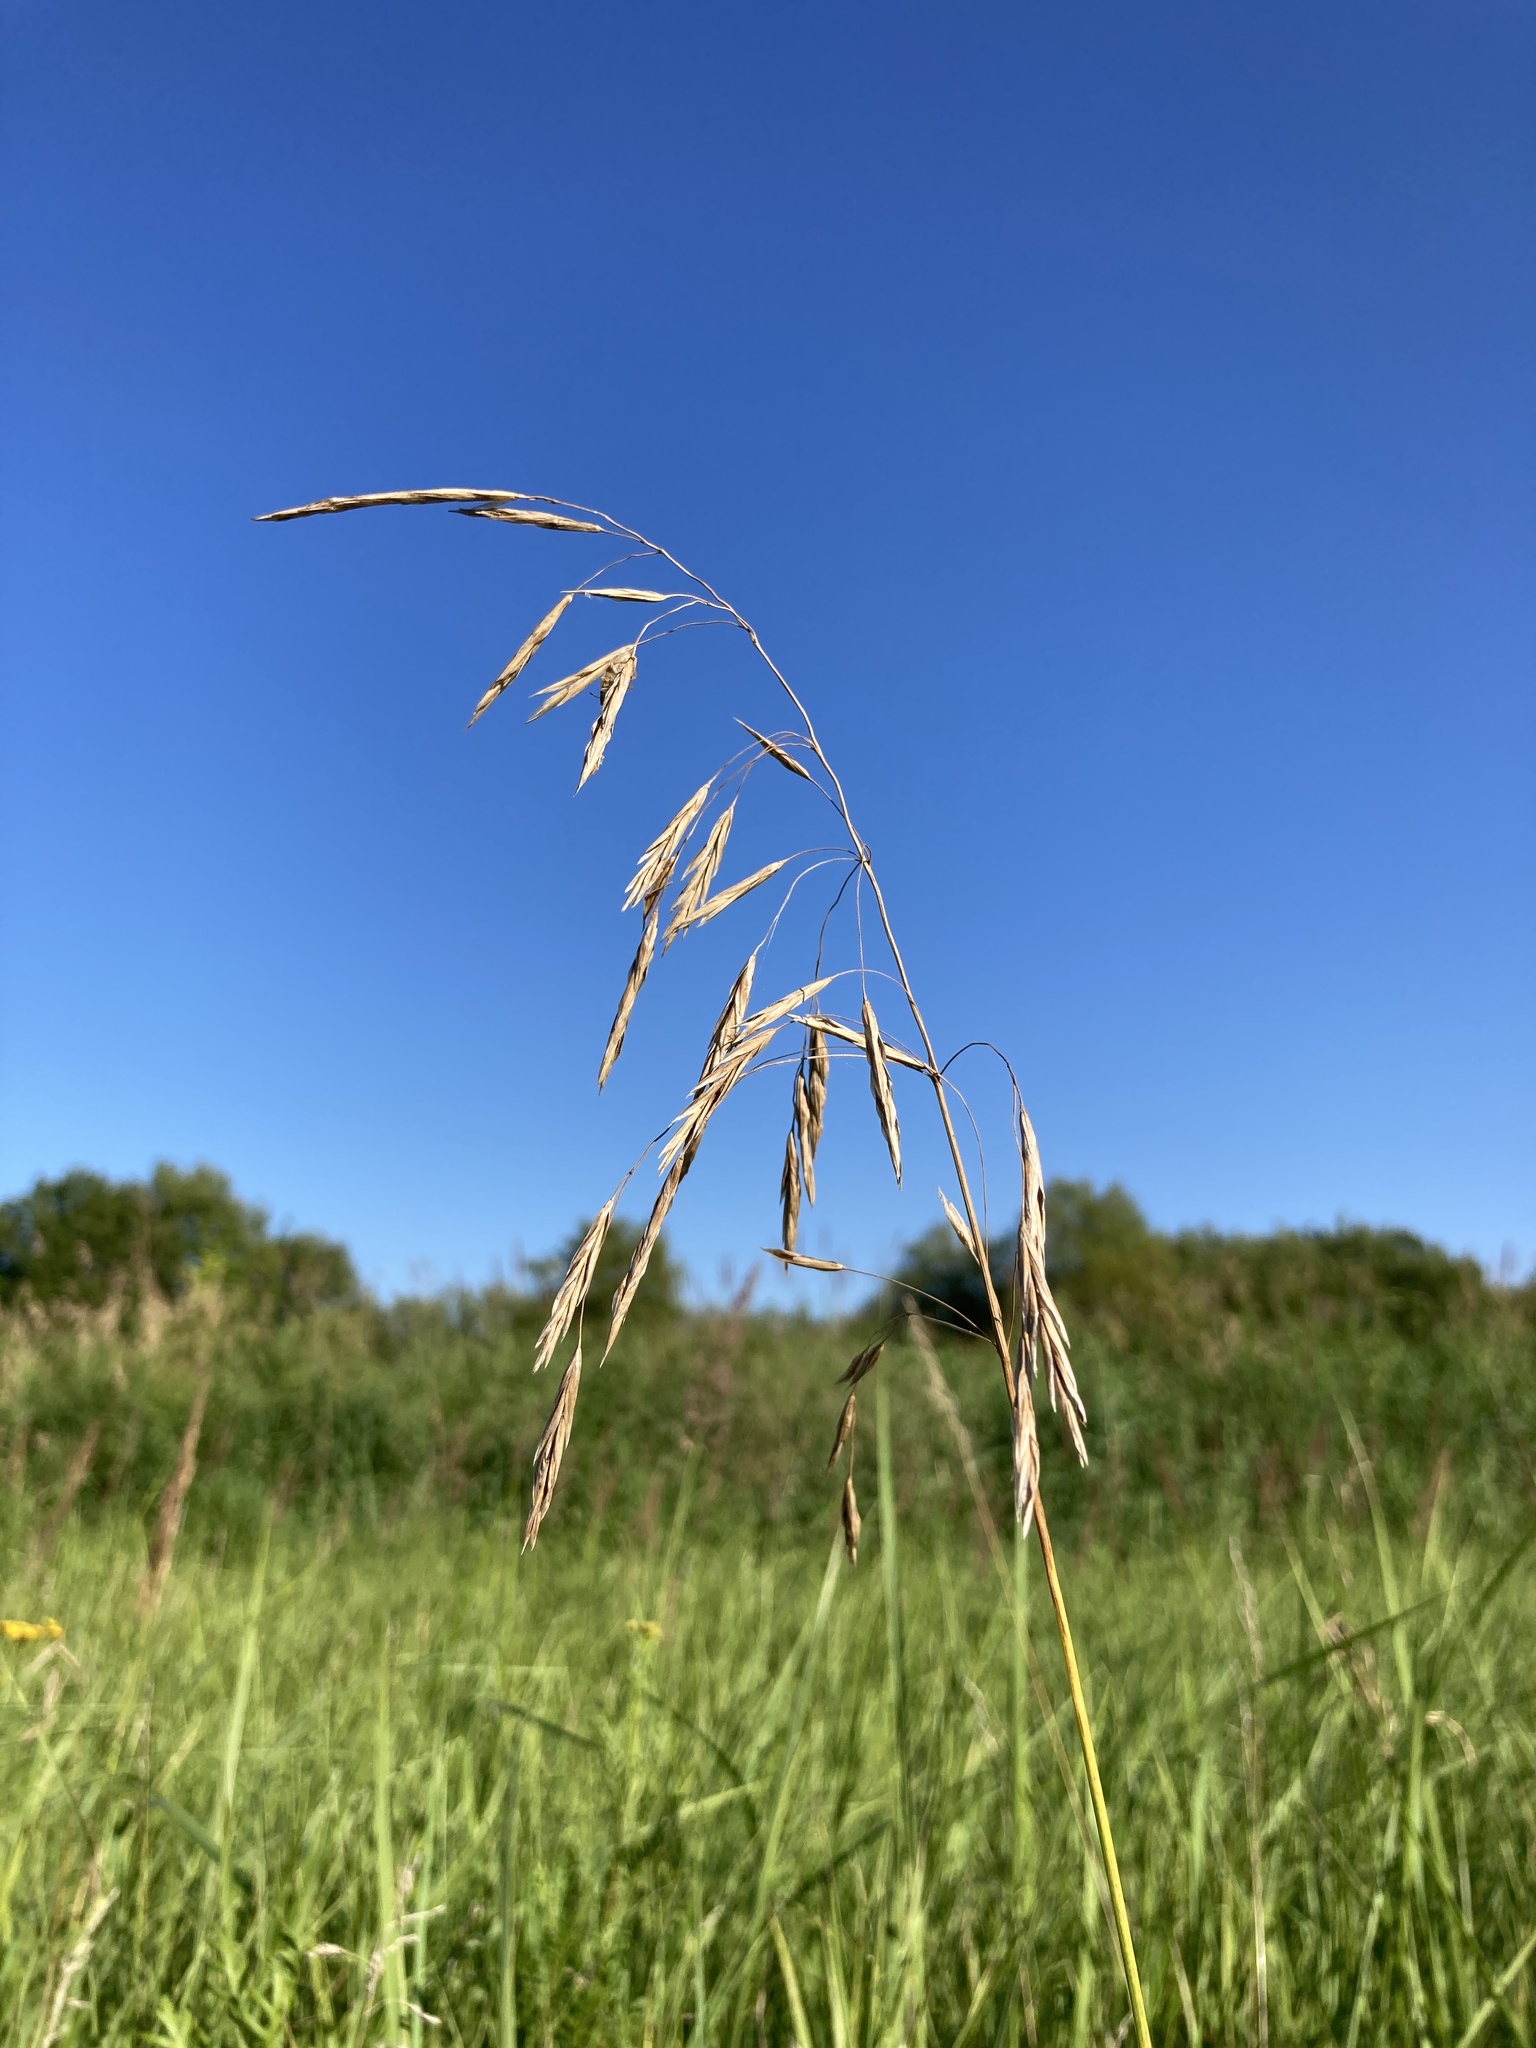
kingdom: Plantae
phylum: Tracheophyta
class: Liliopsida
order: Poales
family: Poaceae
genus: Bromus
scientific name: Bromus inermis
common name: Smooth brome
